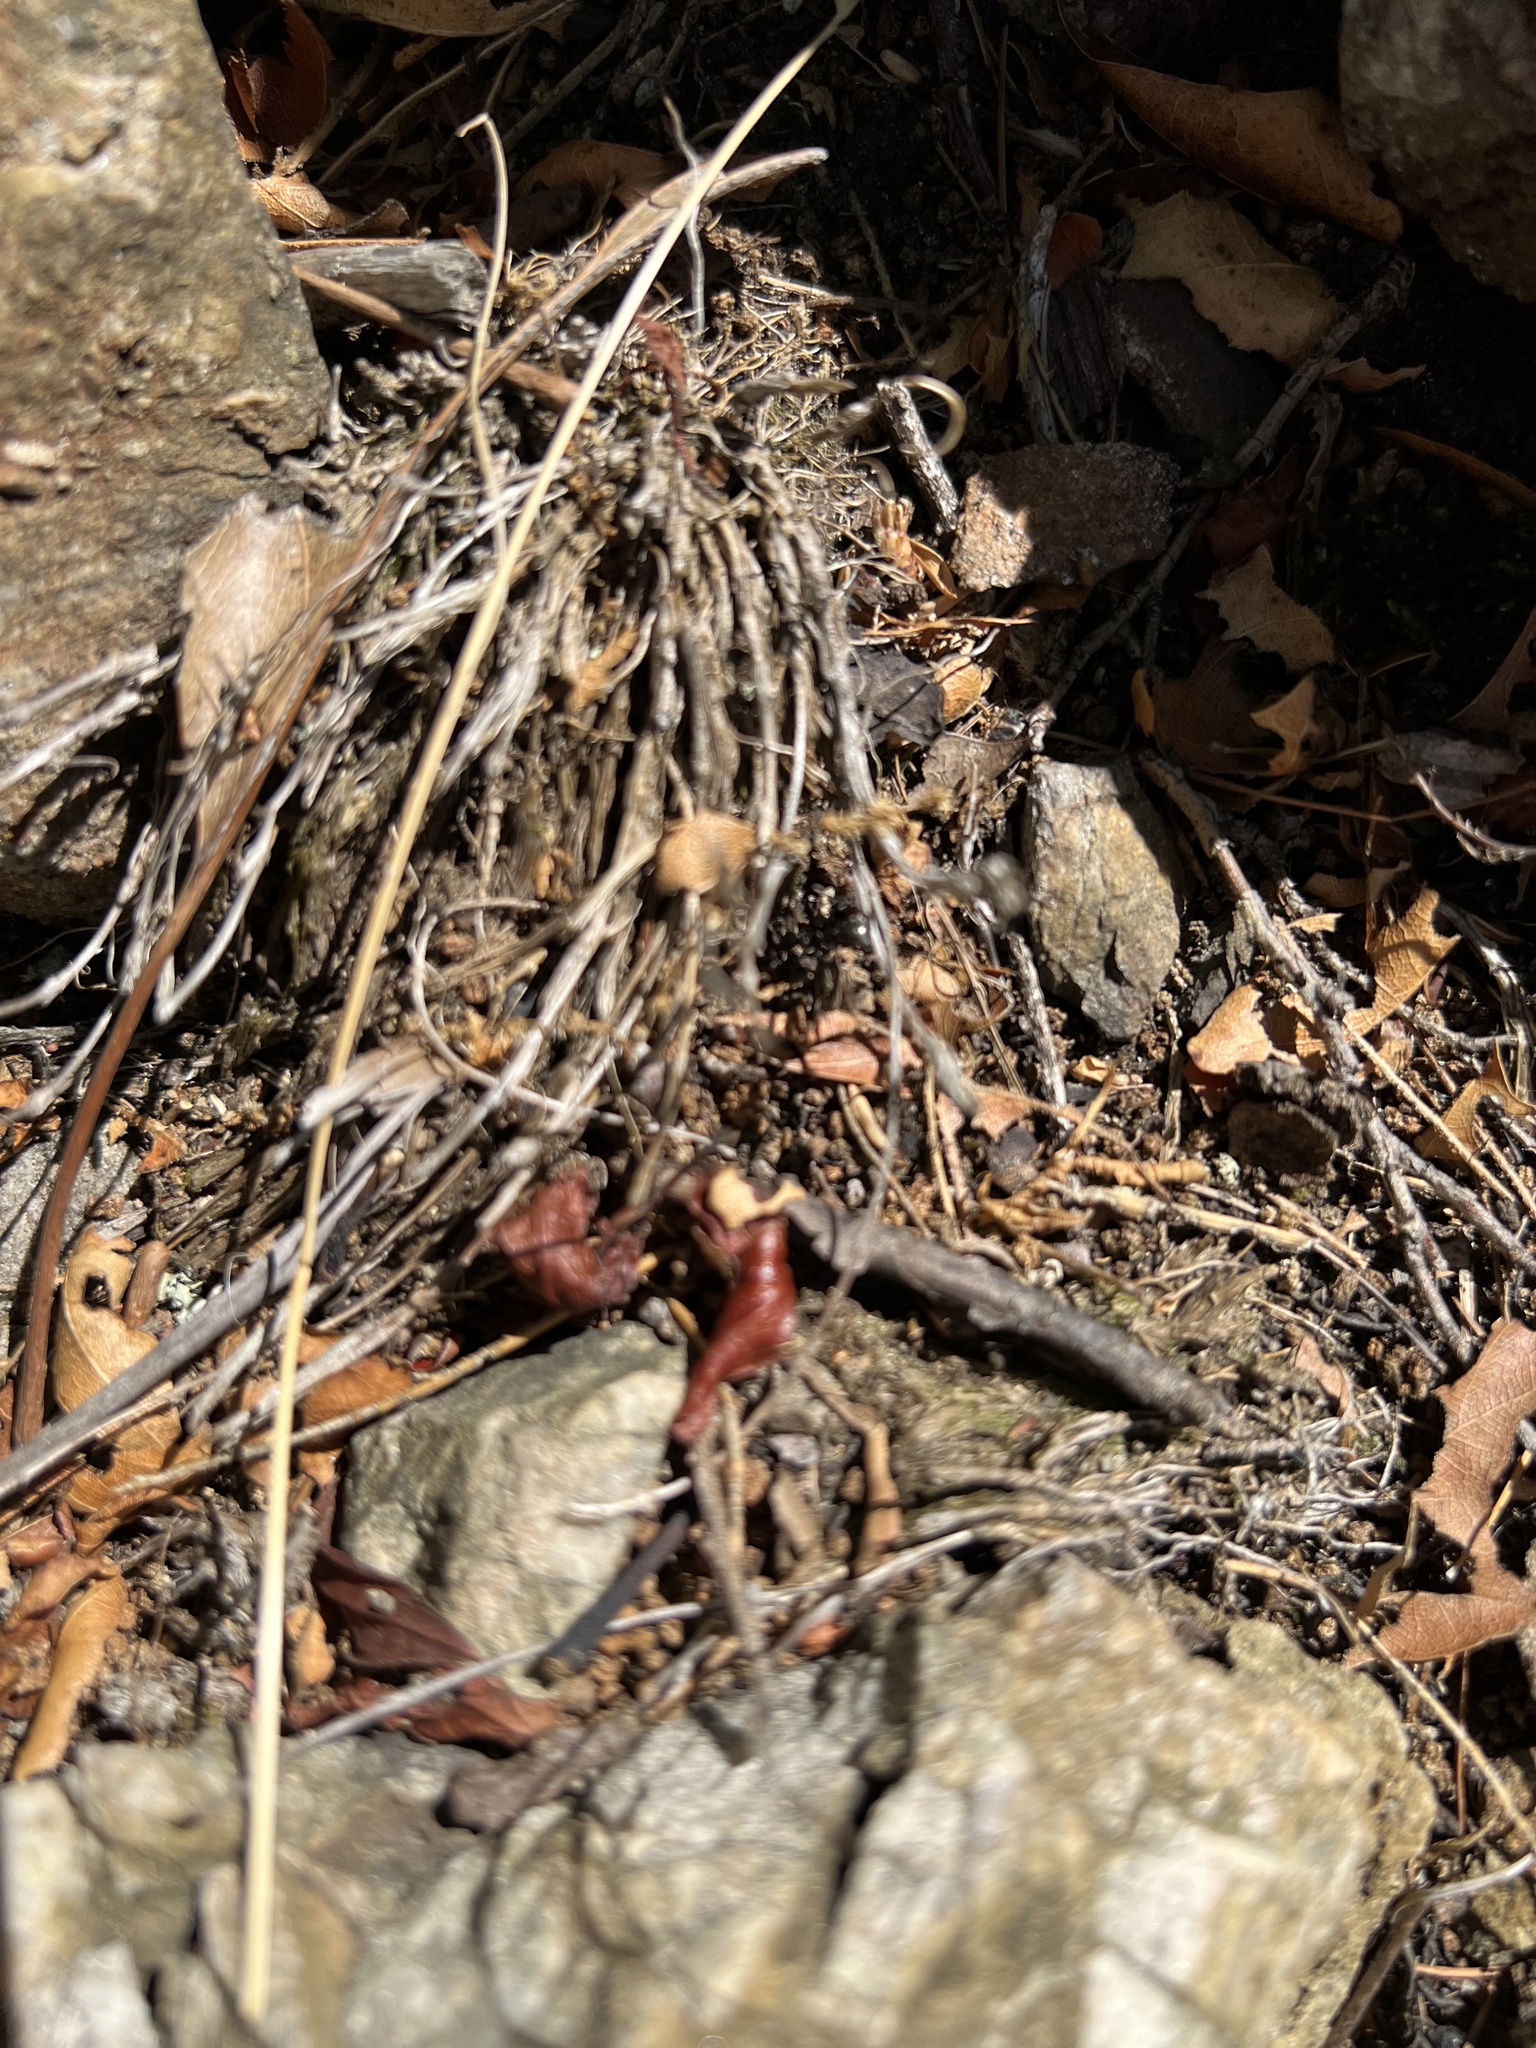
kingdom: Animalia
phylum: Arthropoda
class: Insecta
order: Hymenoptera
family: Formicidae
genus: Formica
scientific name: Formica
